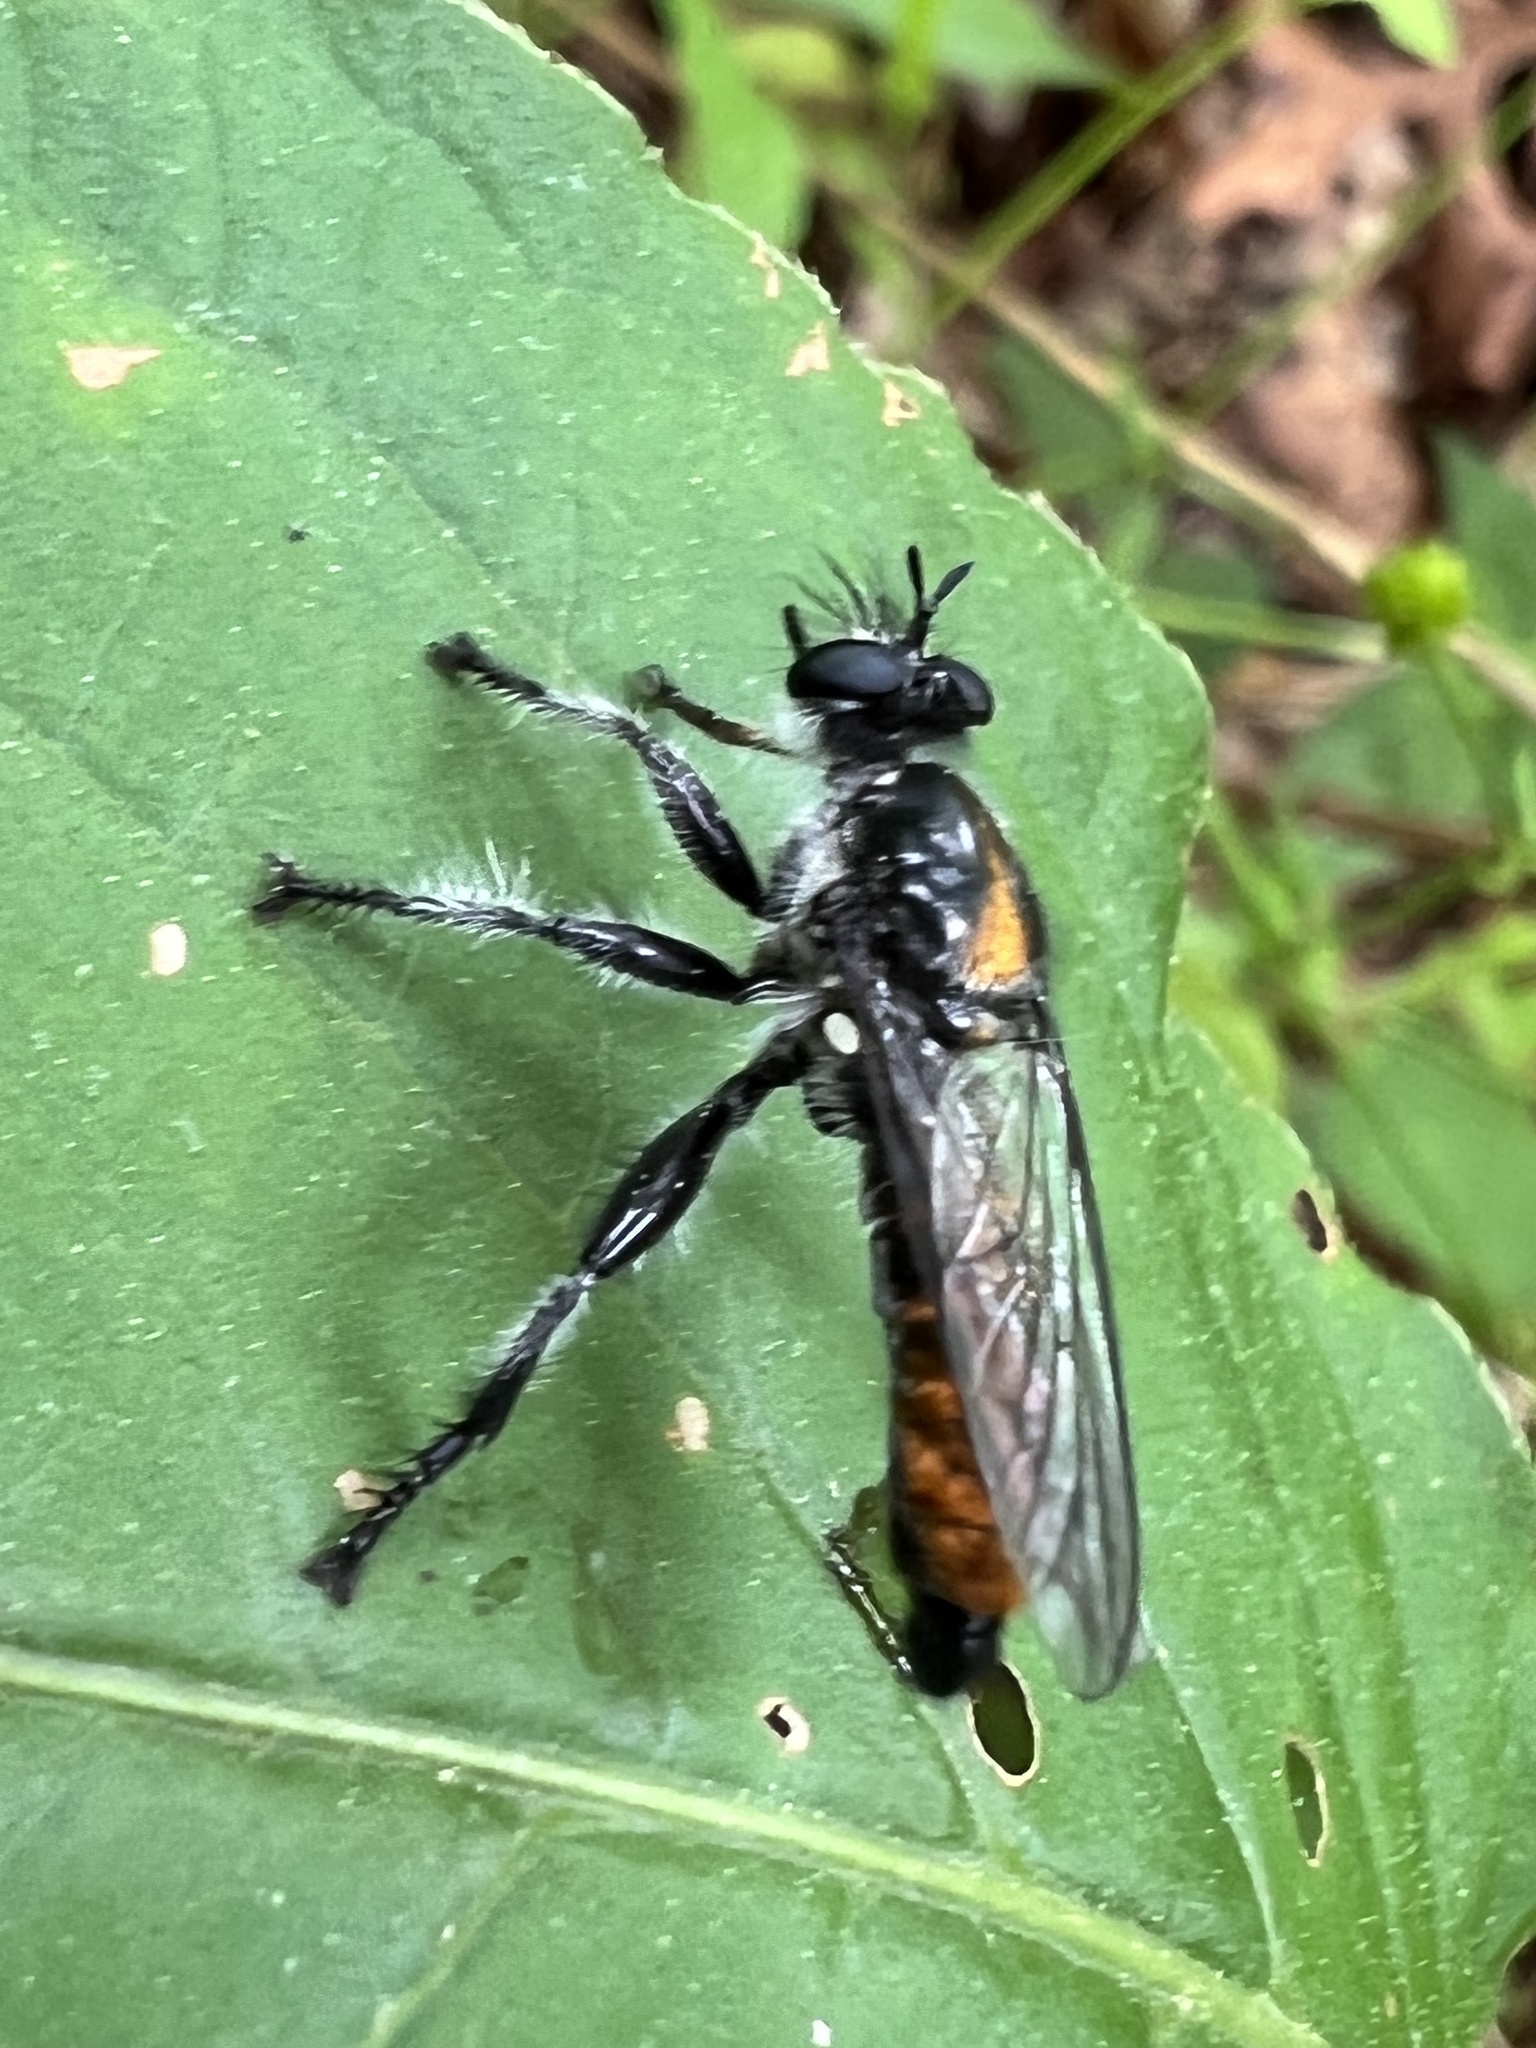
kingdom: Animalia
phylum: Arthropoda
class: Insecta
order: Diptera
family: Asilidae
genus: Laphria
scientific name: Laphria ithypyga
